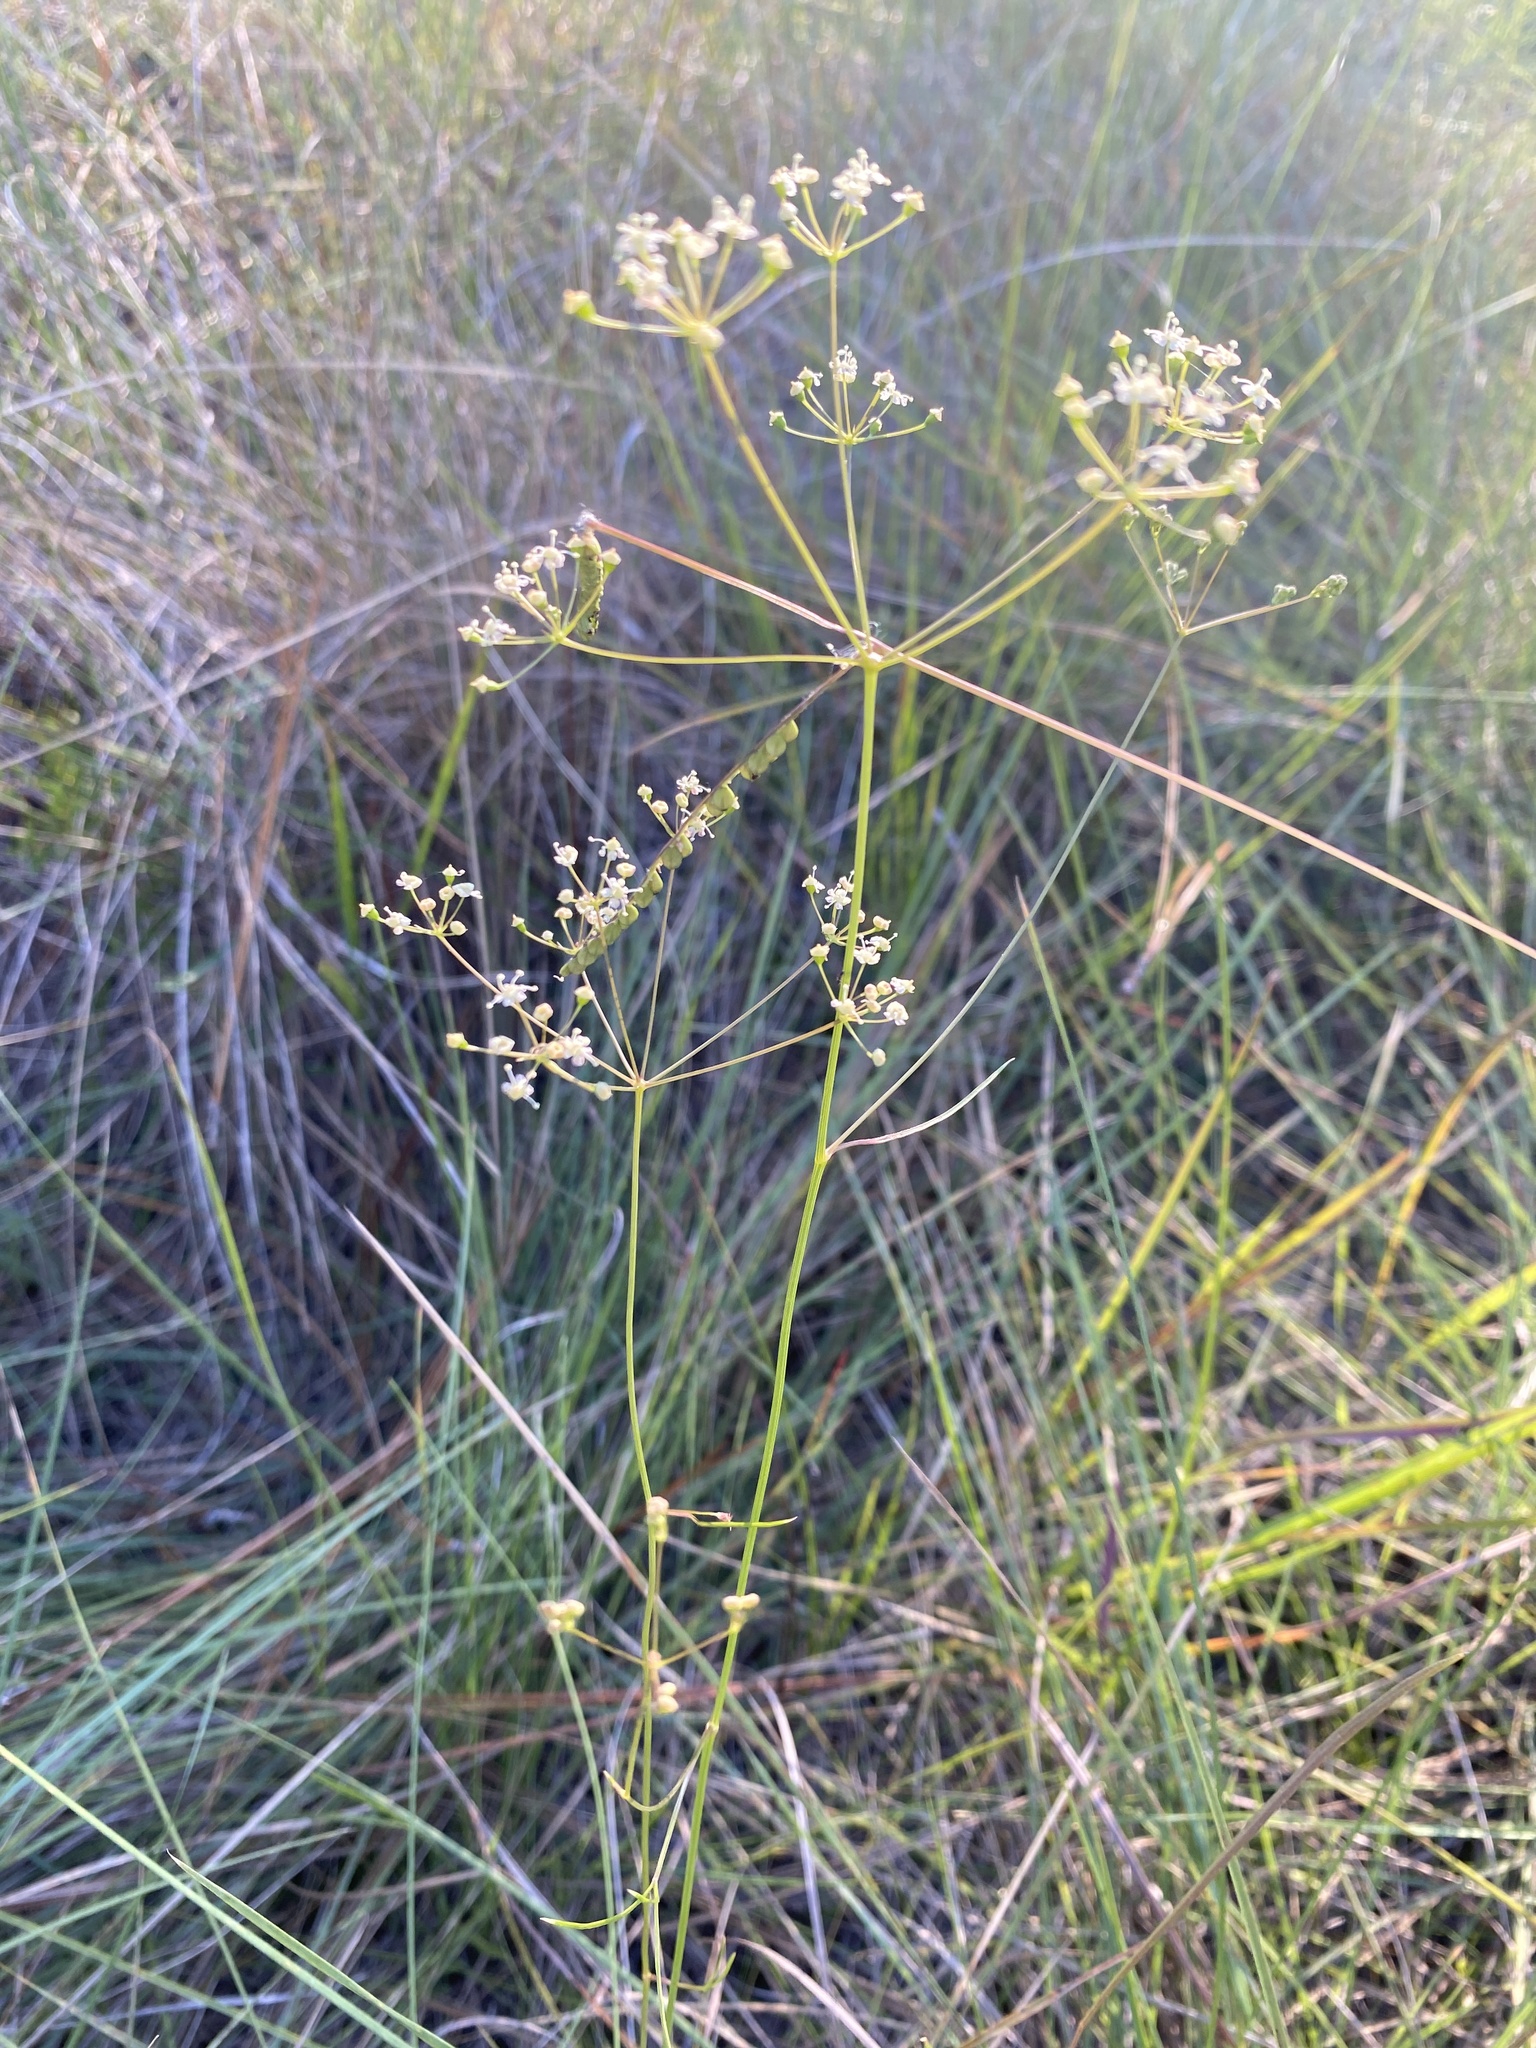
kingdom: Plantae
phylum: Tracheophyta
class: Magnoliopsida
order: Apiales
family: Apiaceae
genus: Oxypolis
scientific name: Oxypolis ternata
